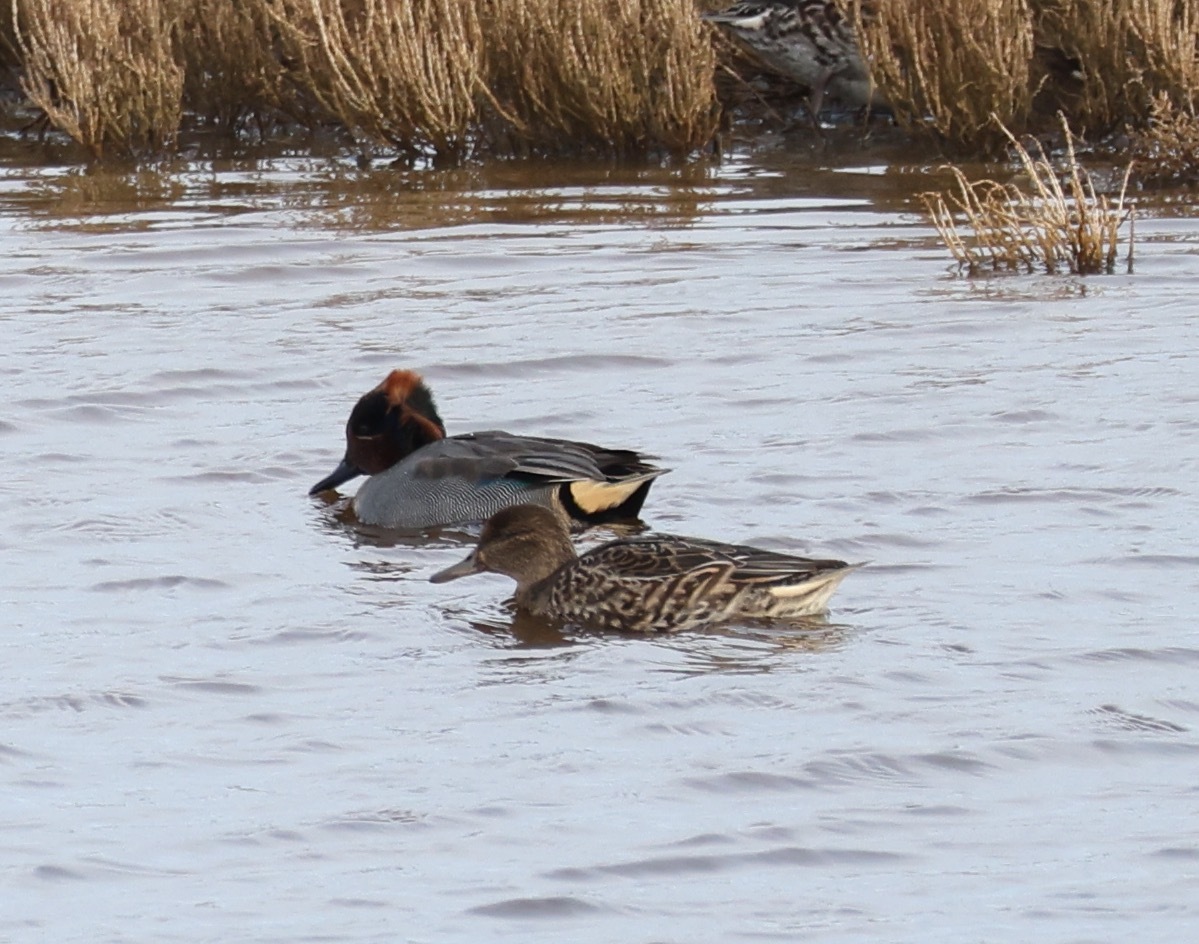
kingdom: Animalia
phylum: Chordata
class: Aves
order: Anseriformes
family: Anatidae
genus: Anas
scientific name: Anas crecca
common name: Eurasian teal
